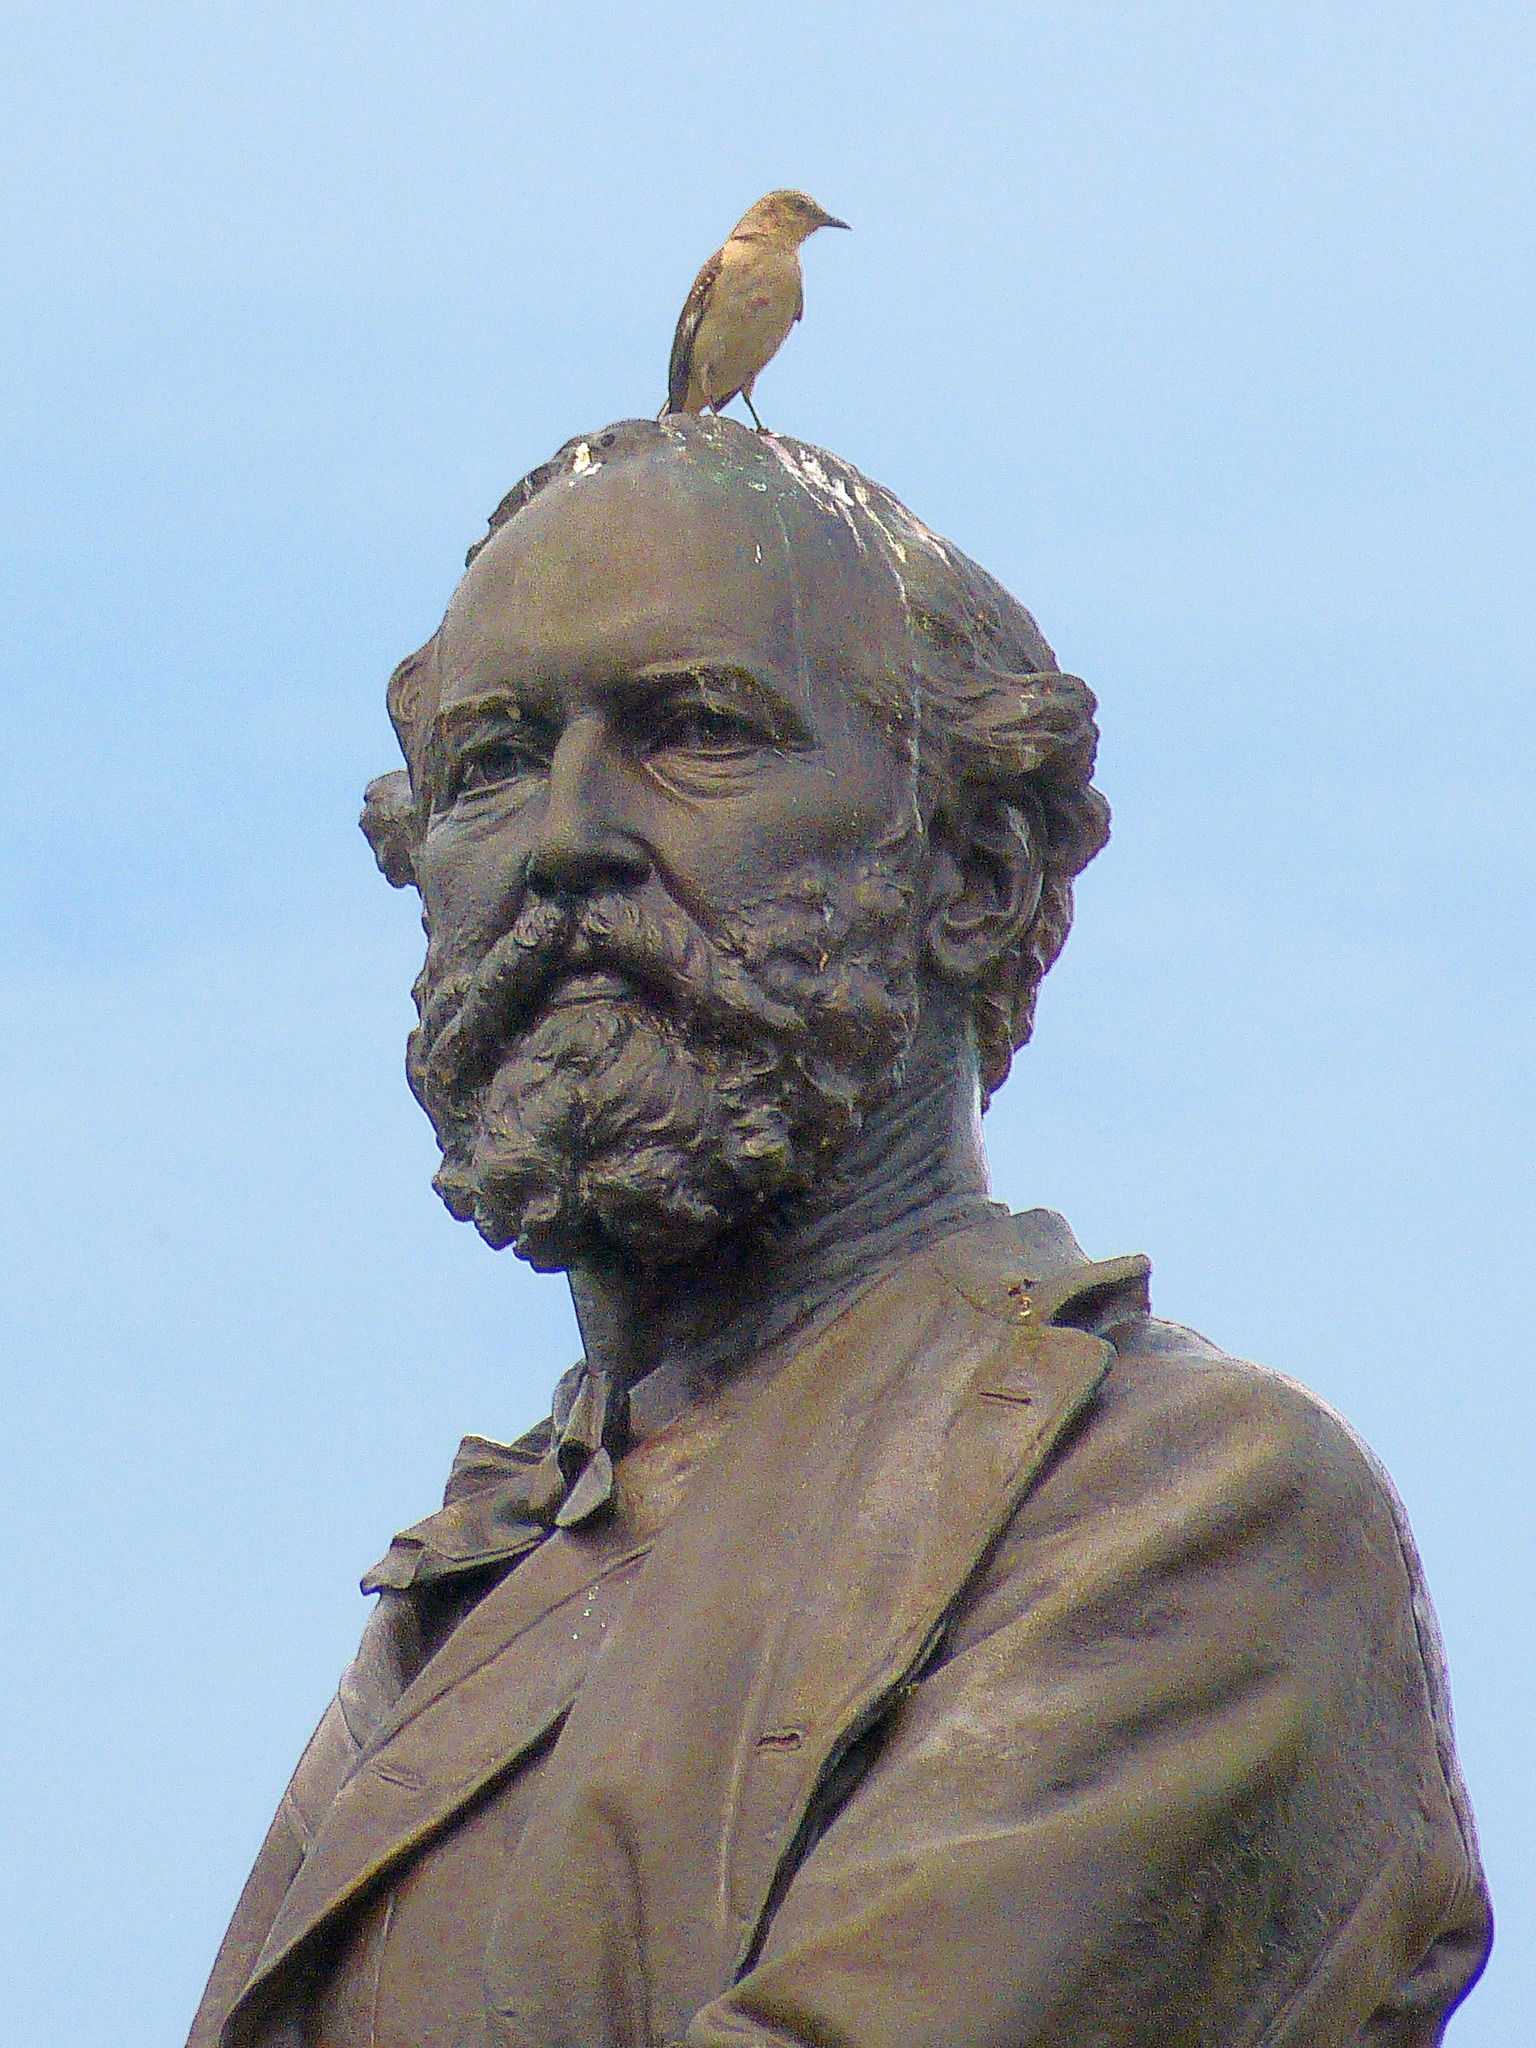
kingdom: Animalia
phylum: Chordata
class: Aves
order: Passeriformes
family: Mimidae
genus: Mimus
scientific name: Mimus polyglottos
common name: Northern mockingbird
